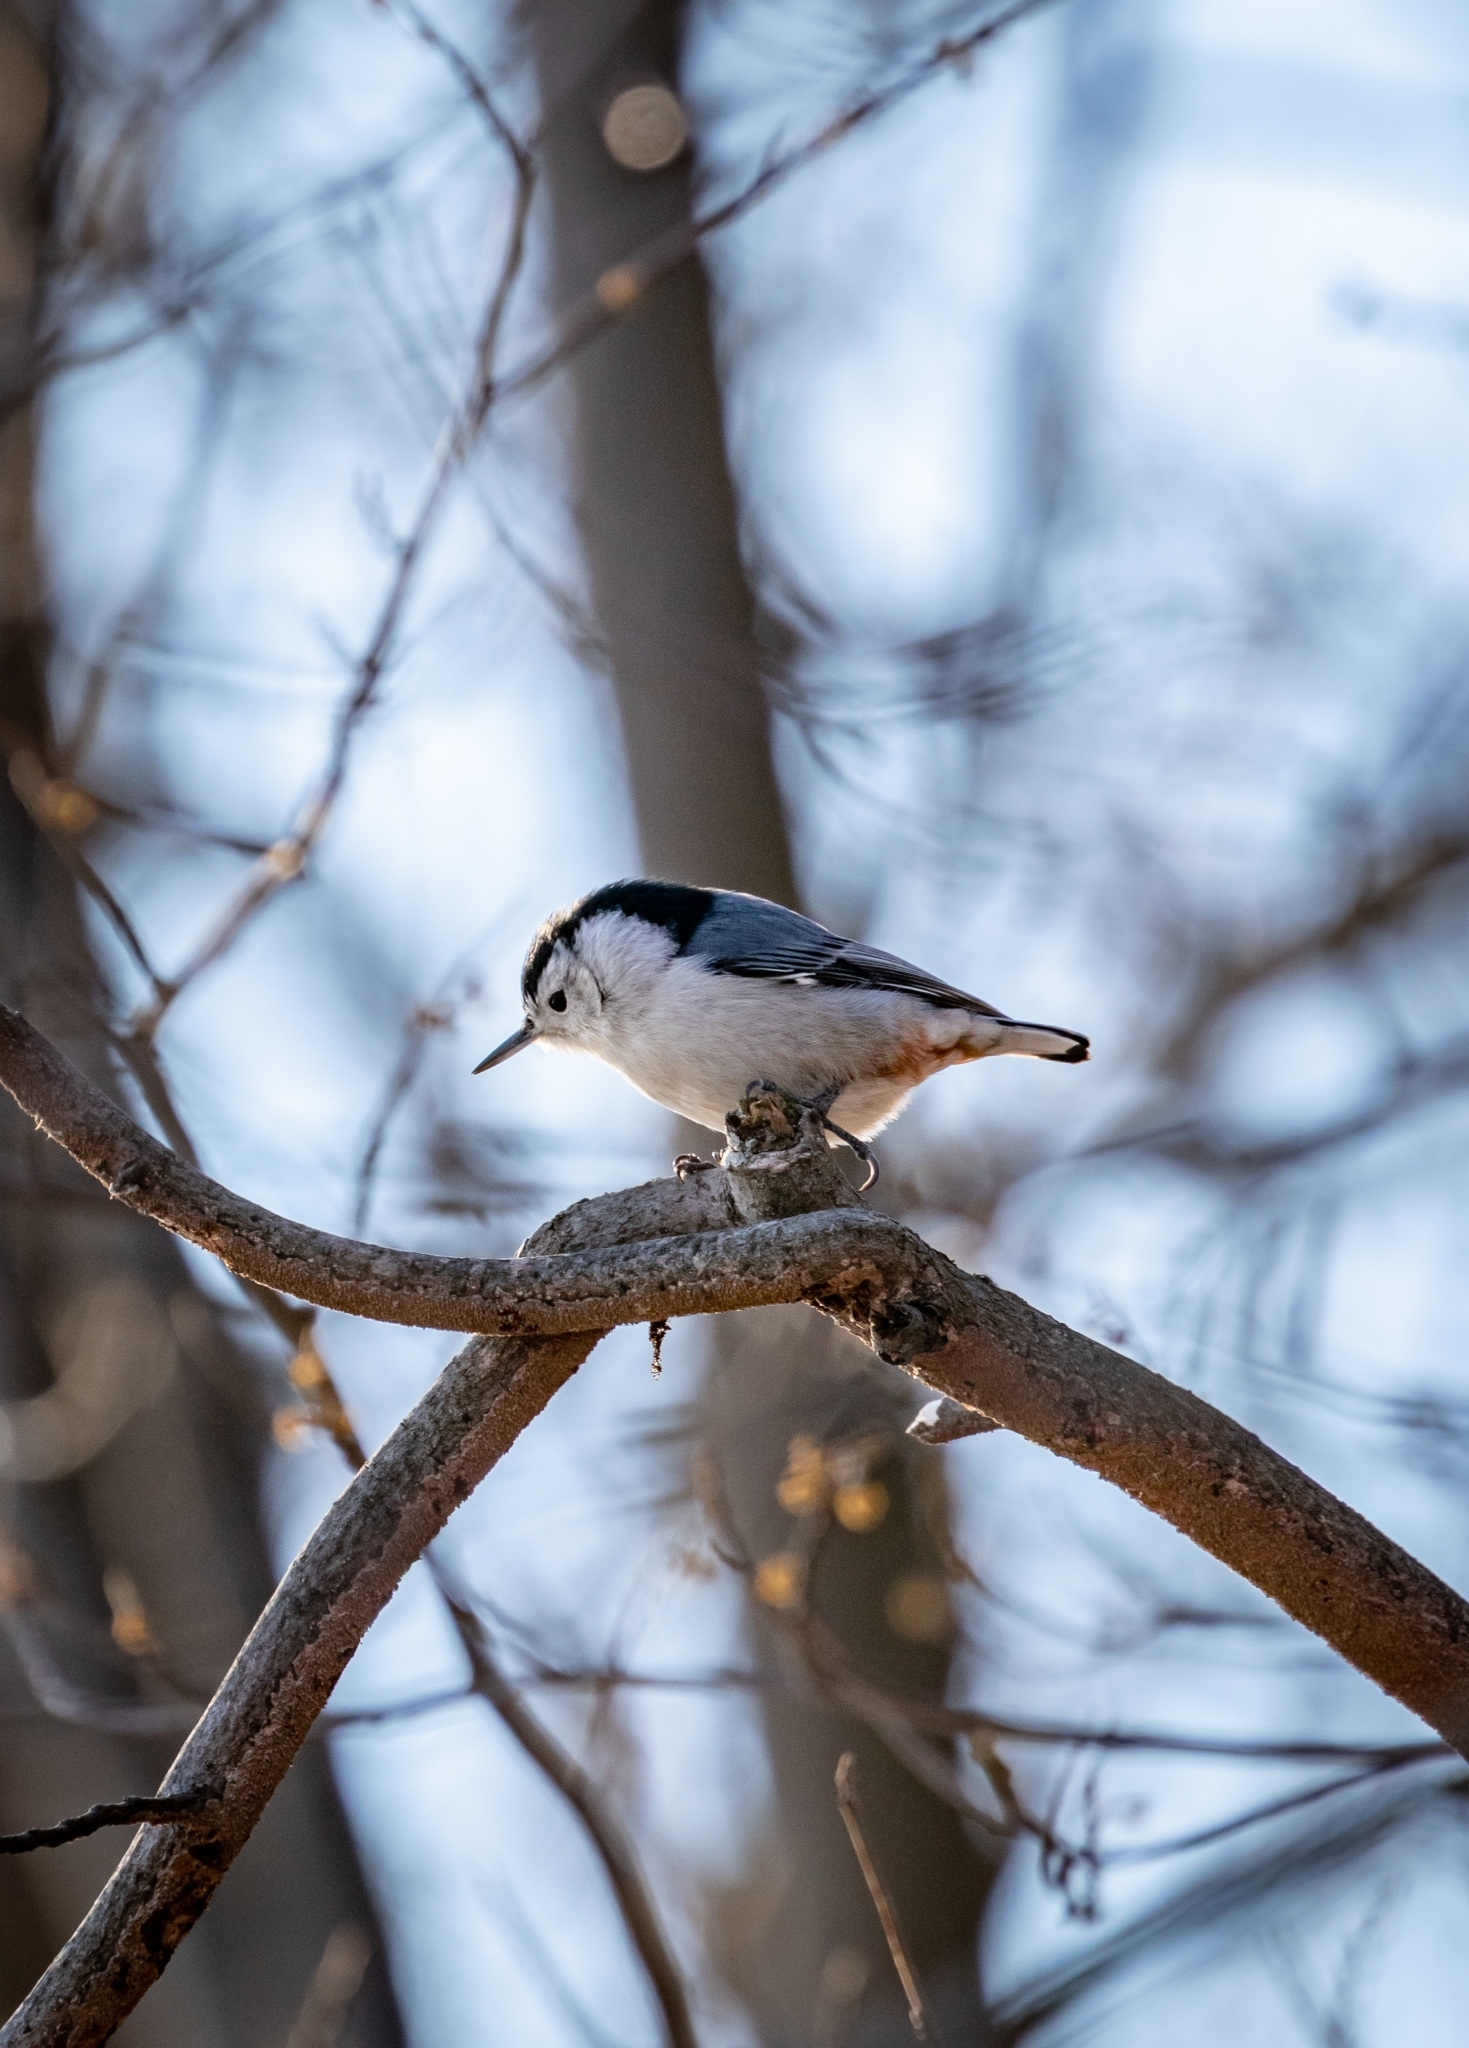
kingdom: Animalia
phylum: Chordata
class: Aves
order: Passeriformes
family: Sittidae
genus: Sitta
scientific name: Sitta carolinensis
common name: White-breasted nuthatch
